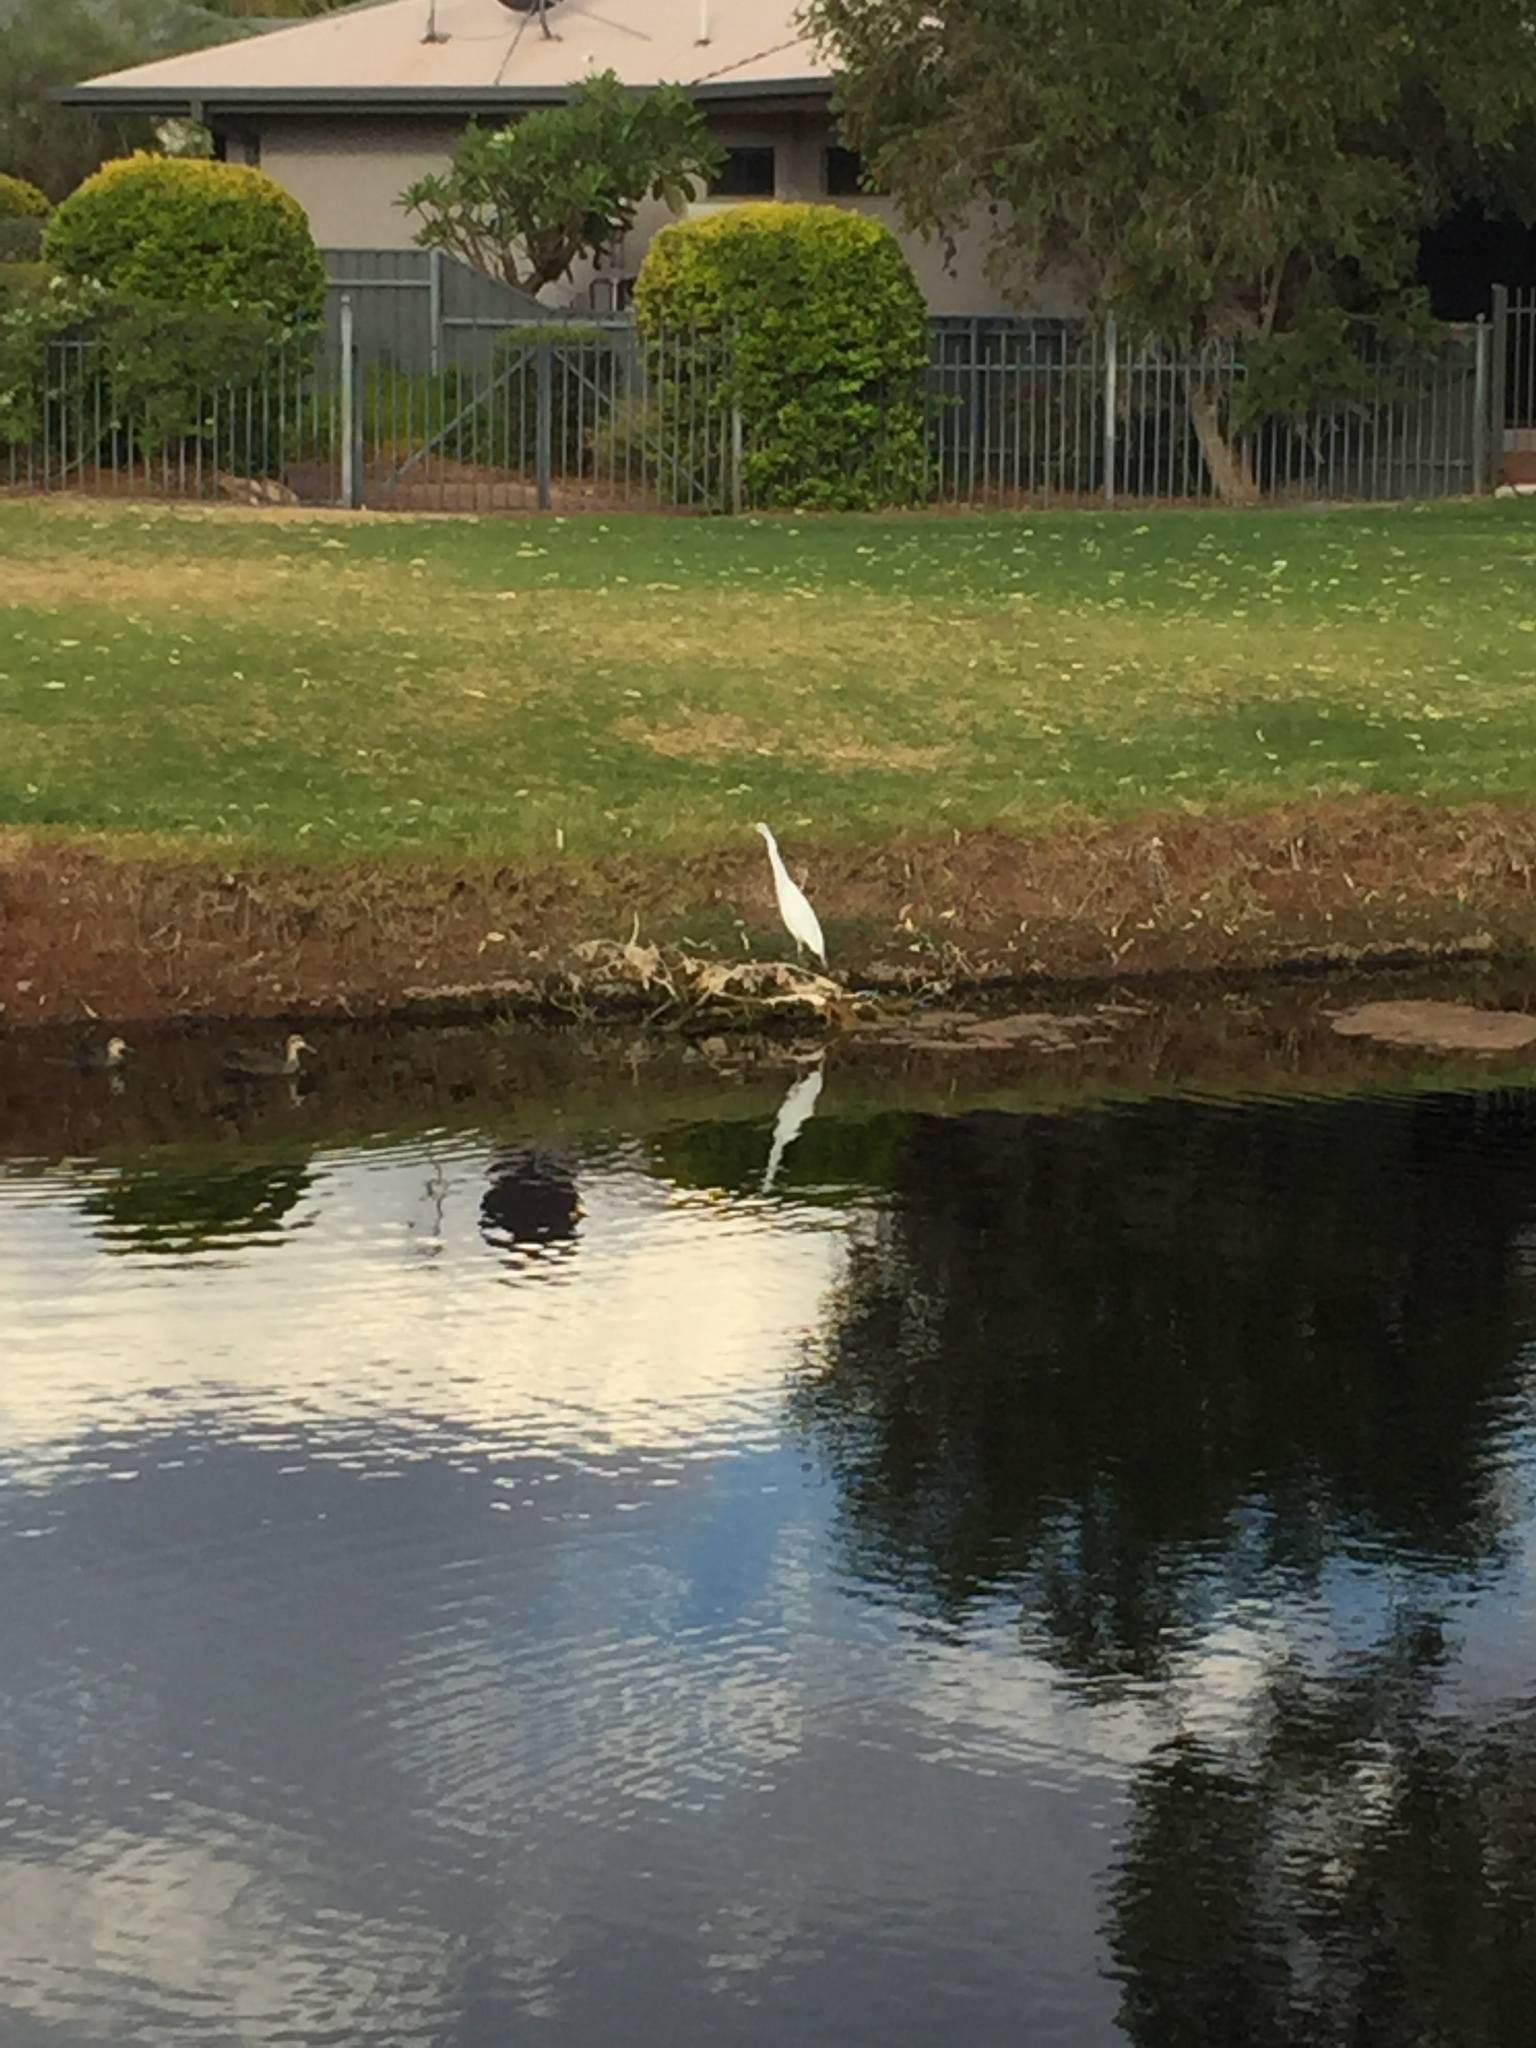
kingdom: Animalia
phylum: Chordata
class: Aves
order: Pelecaniformes
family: Ardeidae
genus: Bubulcus
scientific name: Bubulcus coromandus
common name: Eastern cattle egret
